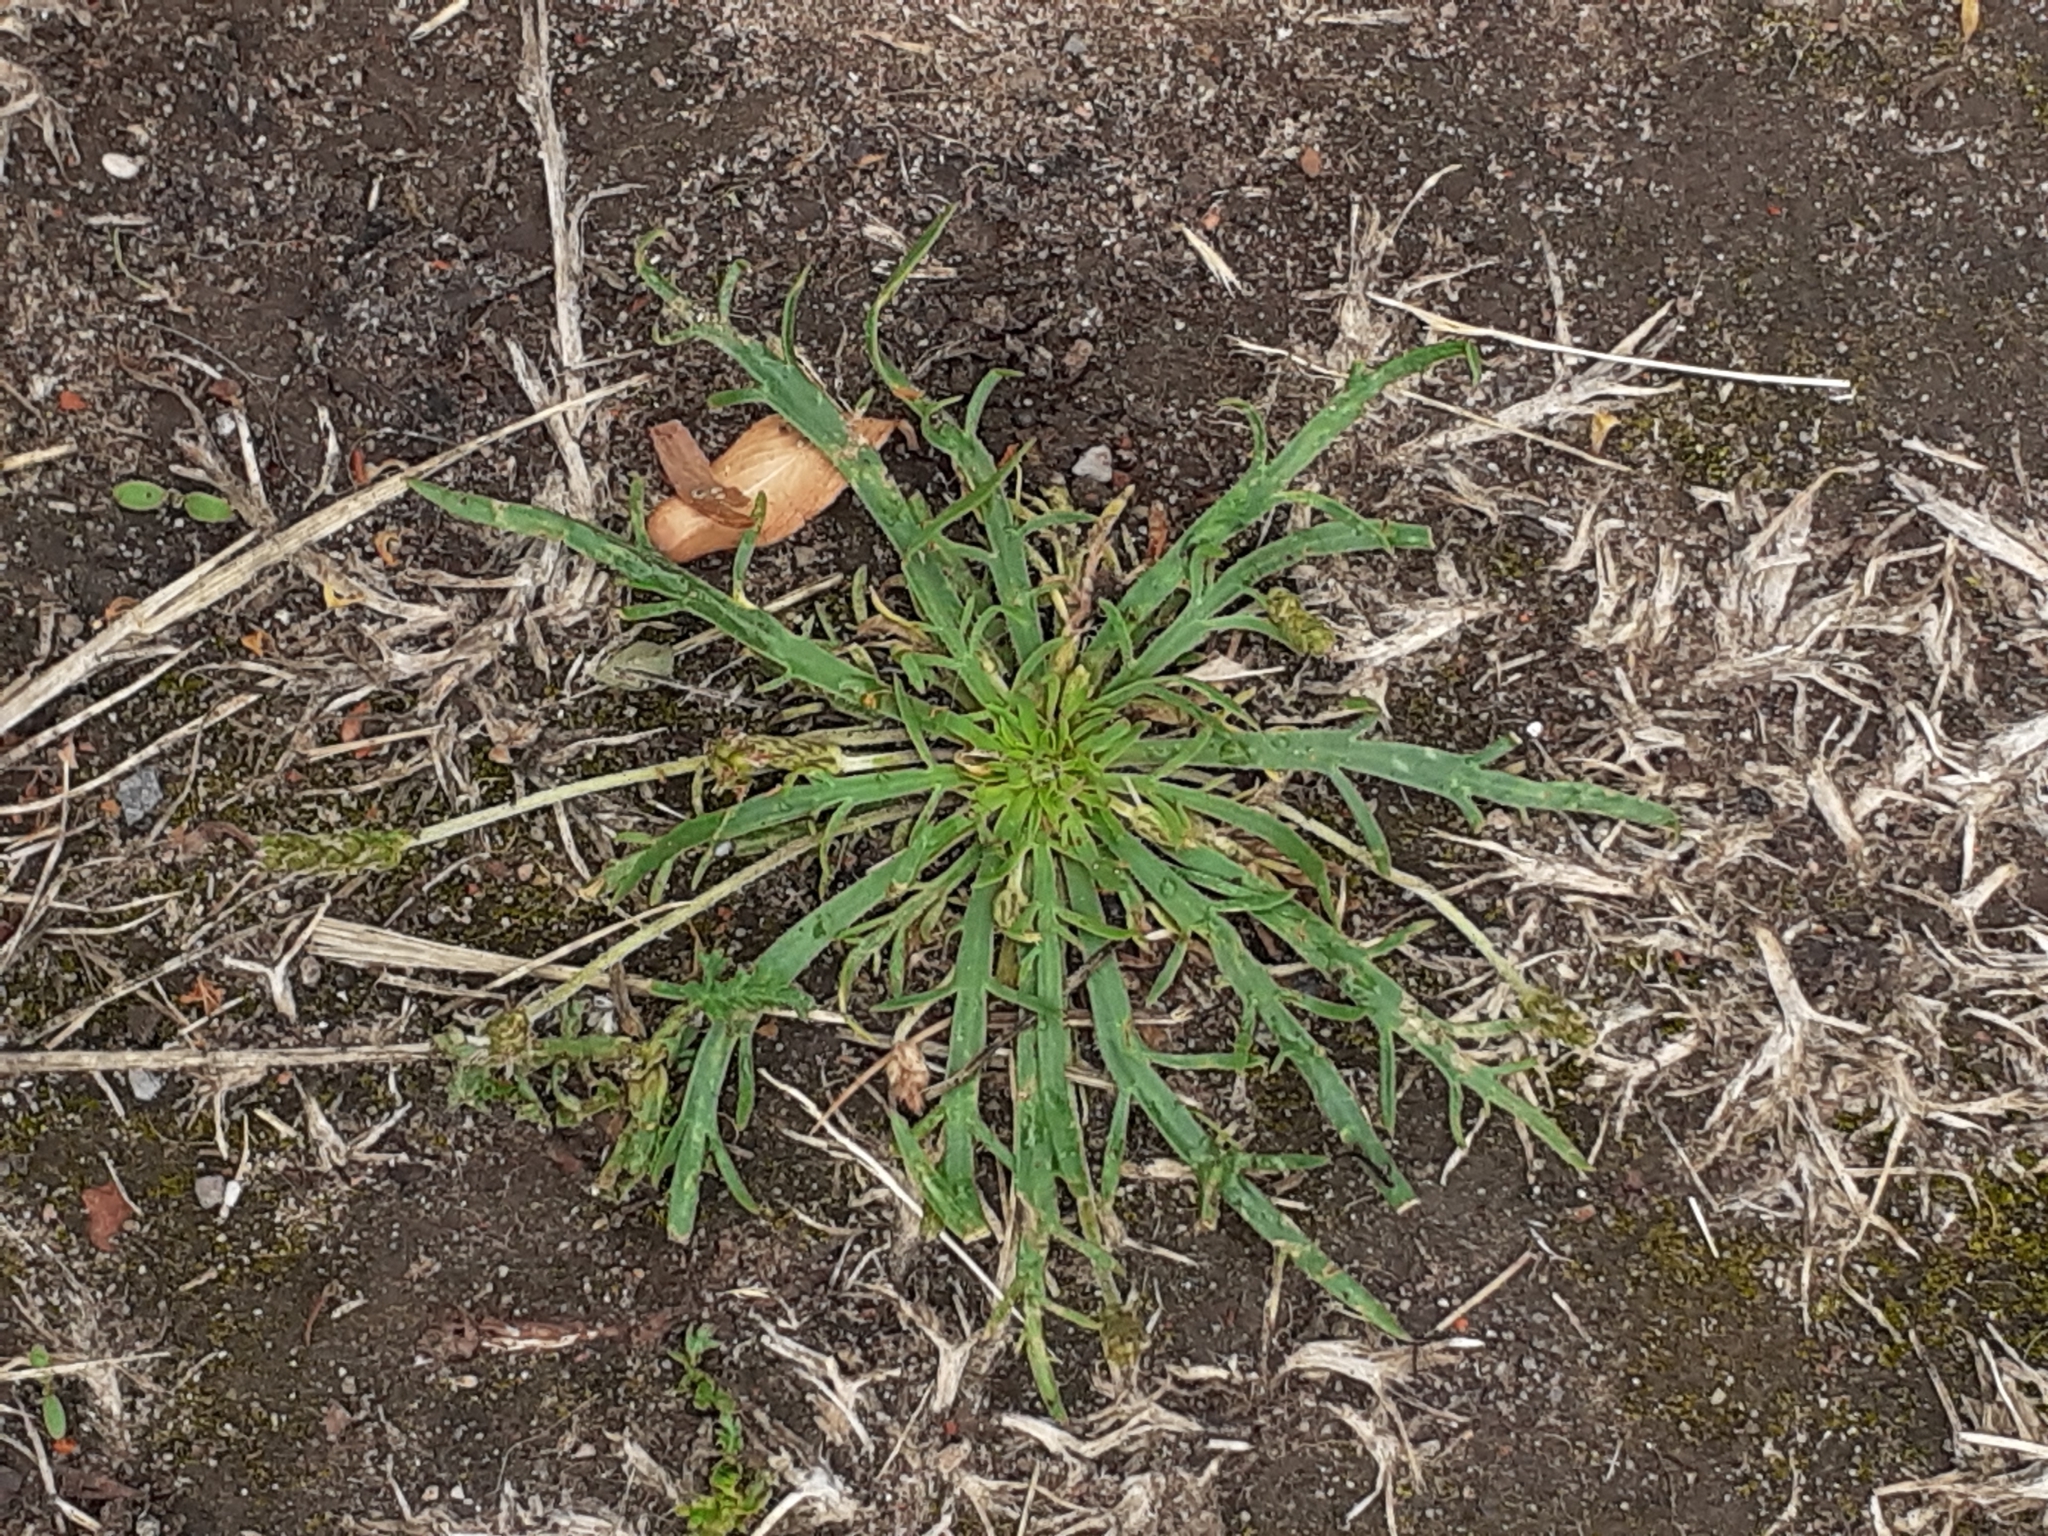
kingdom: Plantae
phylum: Tracheophyta
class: Magnoliopsida
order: Lamiales
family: Plantaginaceae
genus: Plantago
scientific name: Plantago coronopus
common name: Buck's-horn plantain
